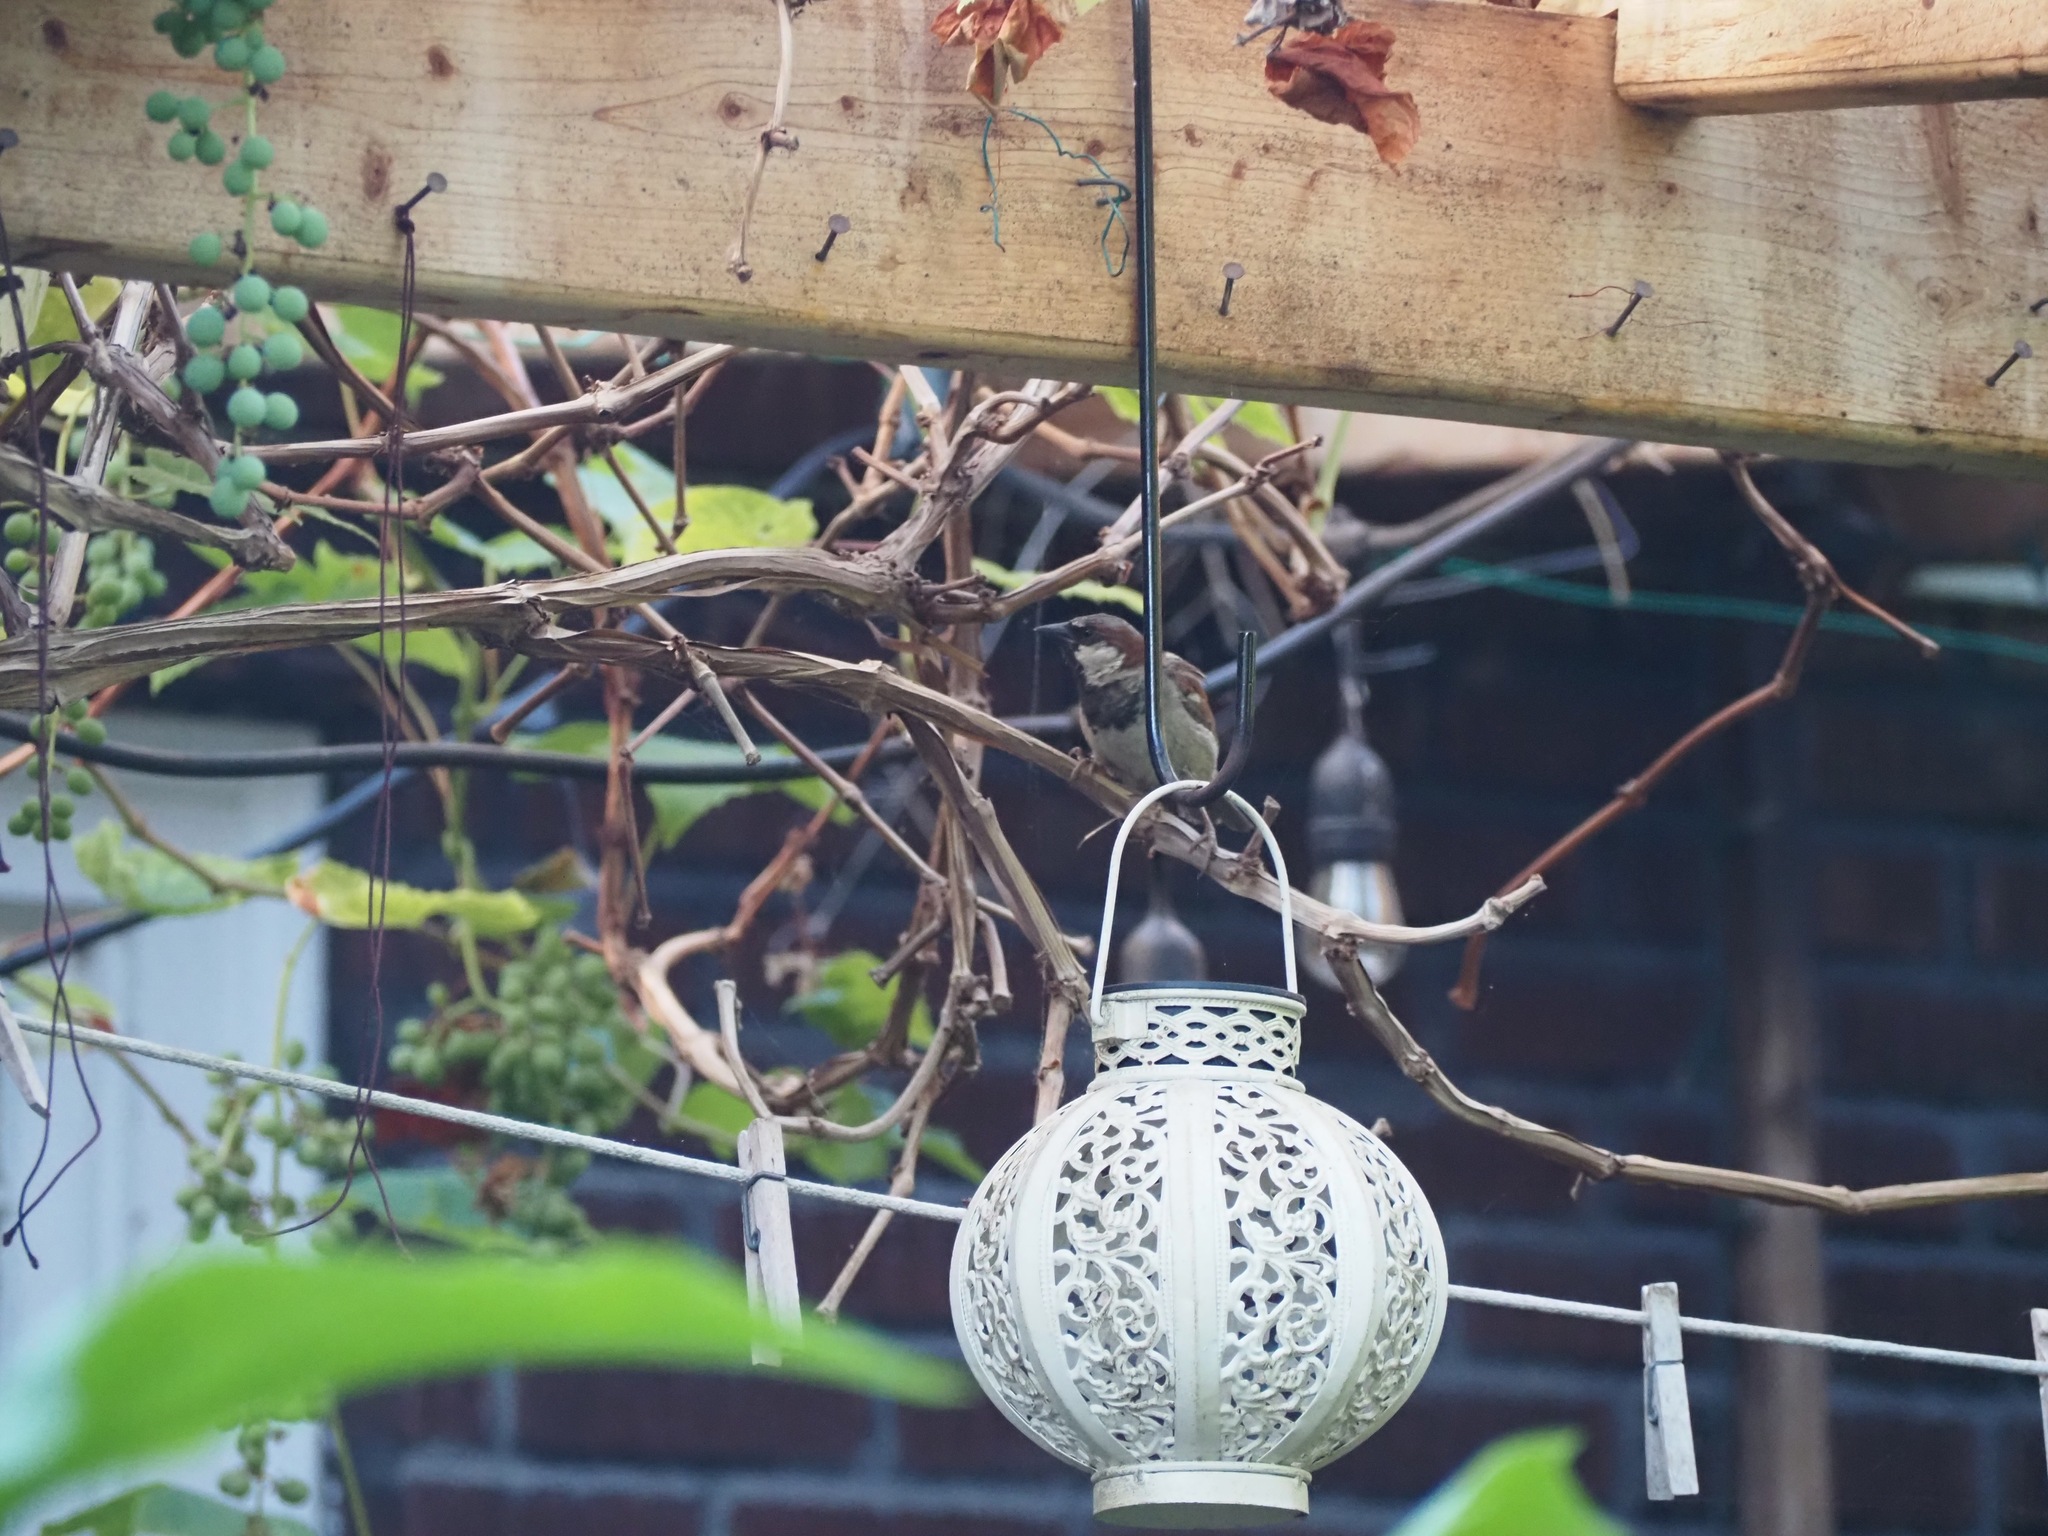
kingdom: Animalia
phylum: Chordata
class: Aves
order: Passeriformes
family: Passeridae
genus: Passer
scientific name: Passer domesticus
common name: House sparrow
